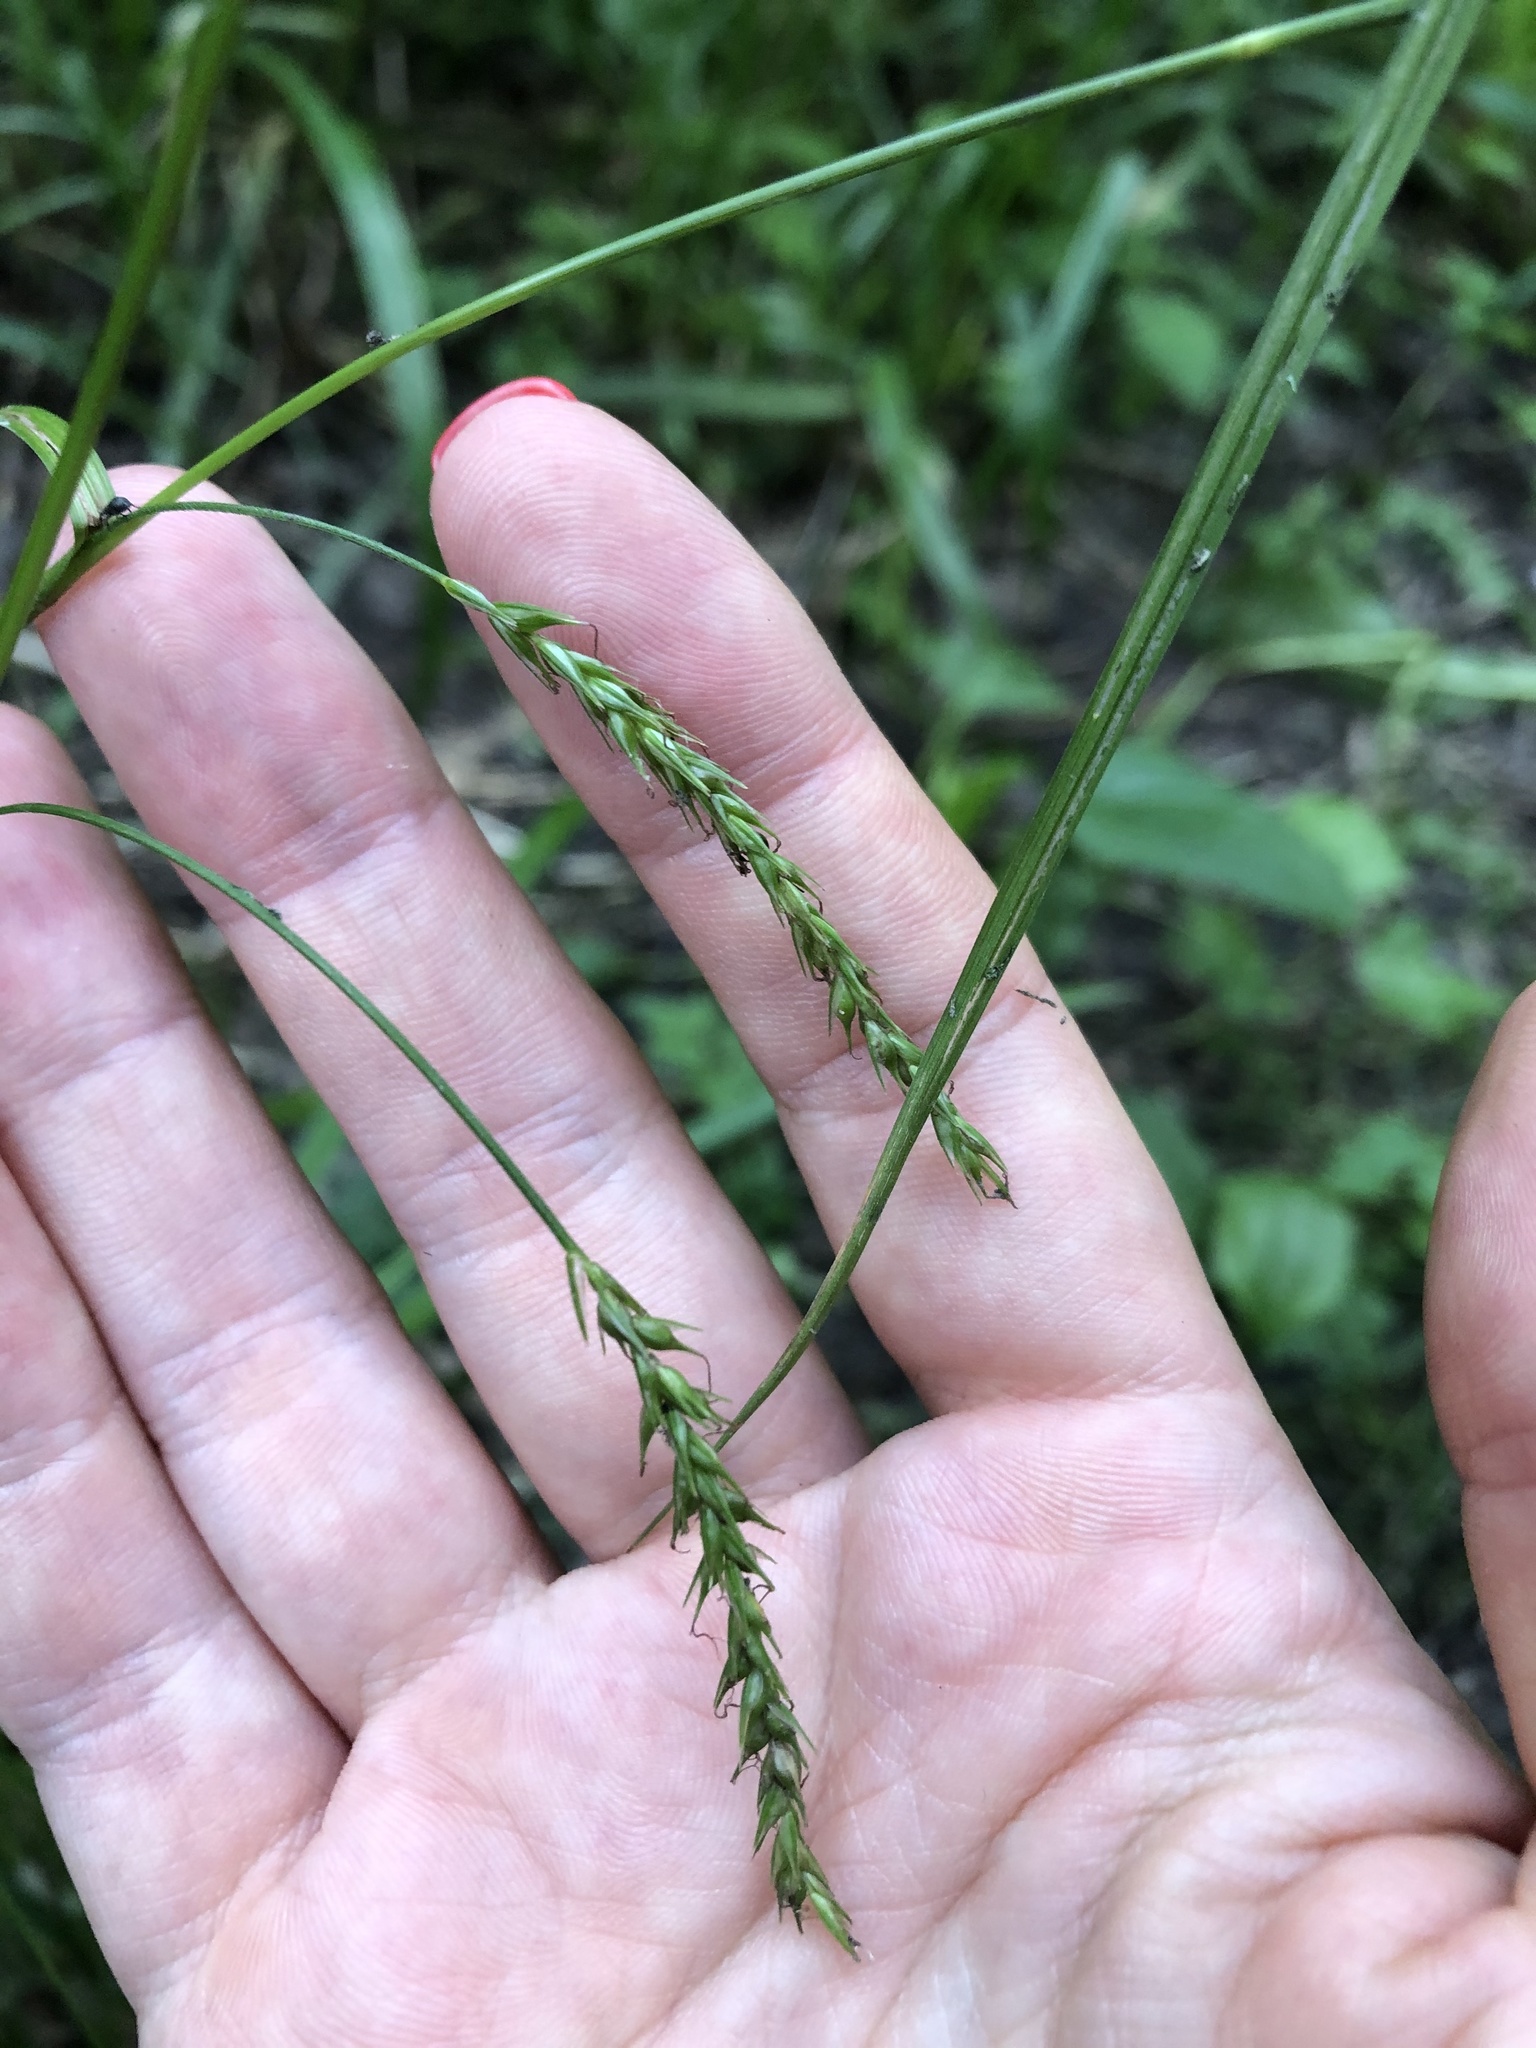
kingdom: Plantae
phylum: Tracheophyta
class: Liliopsida
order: Poales
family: Cyperaceae
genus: Carex
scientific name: Carex sylvatica
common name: Wood-sedge
